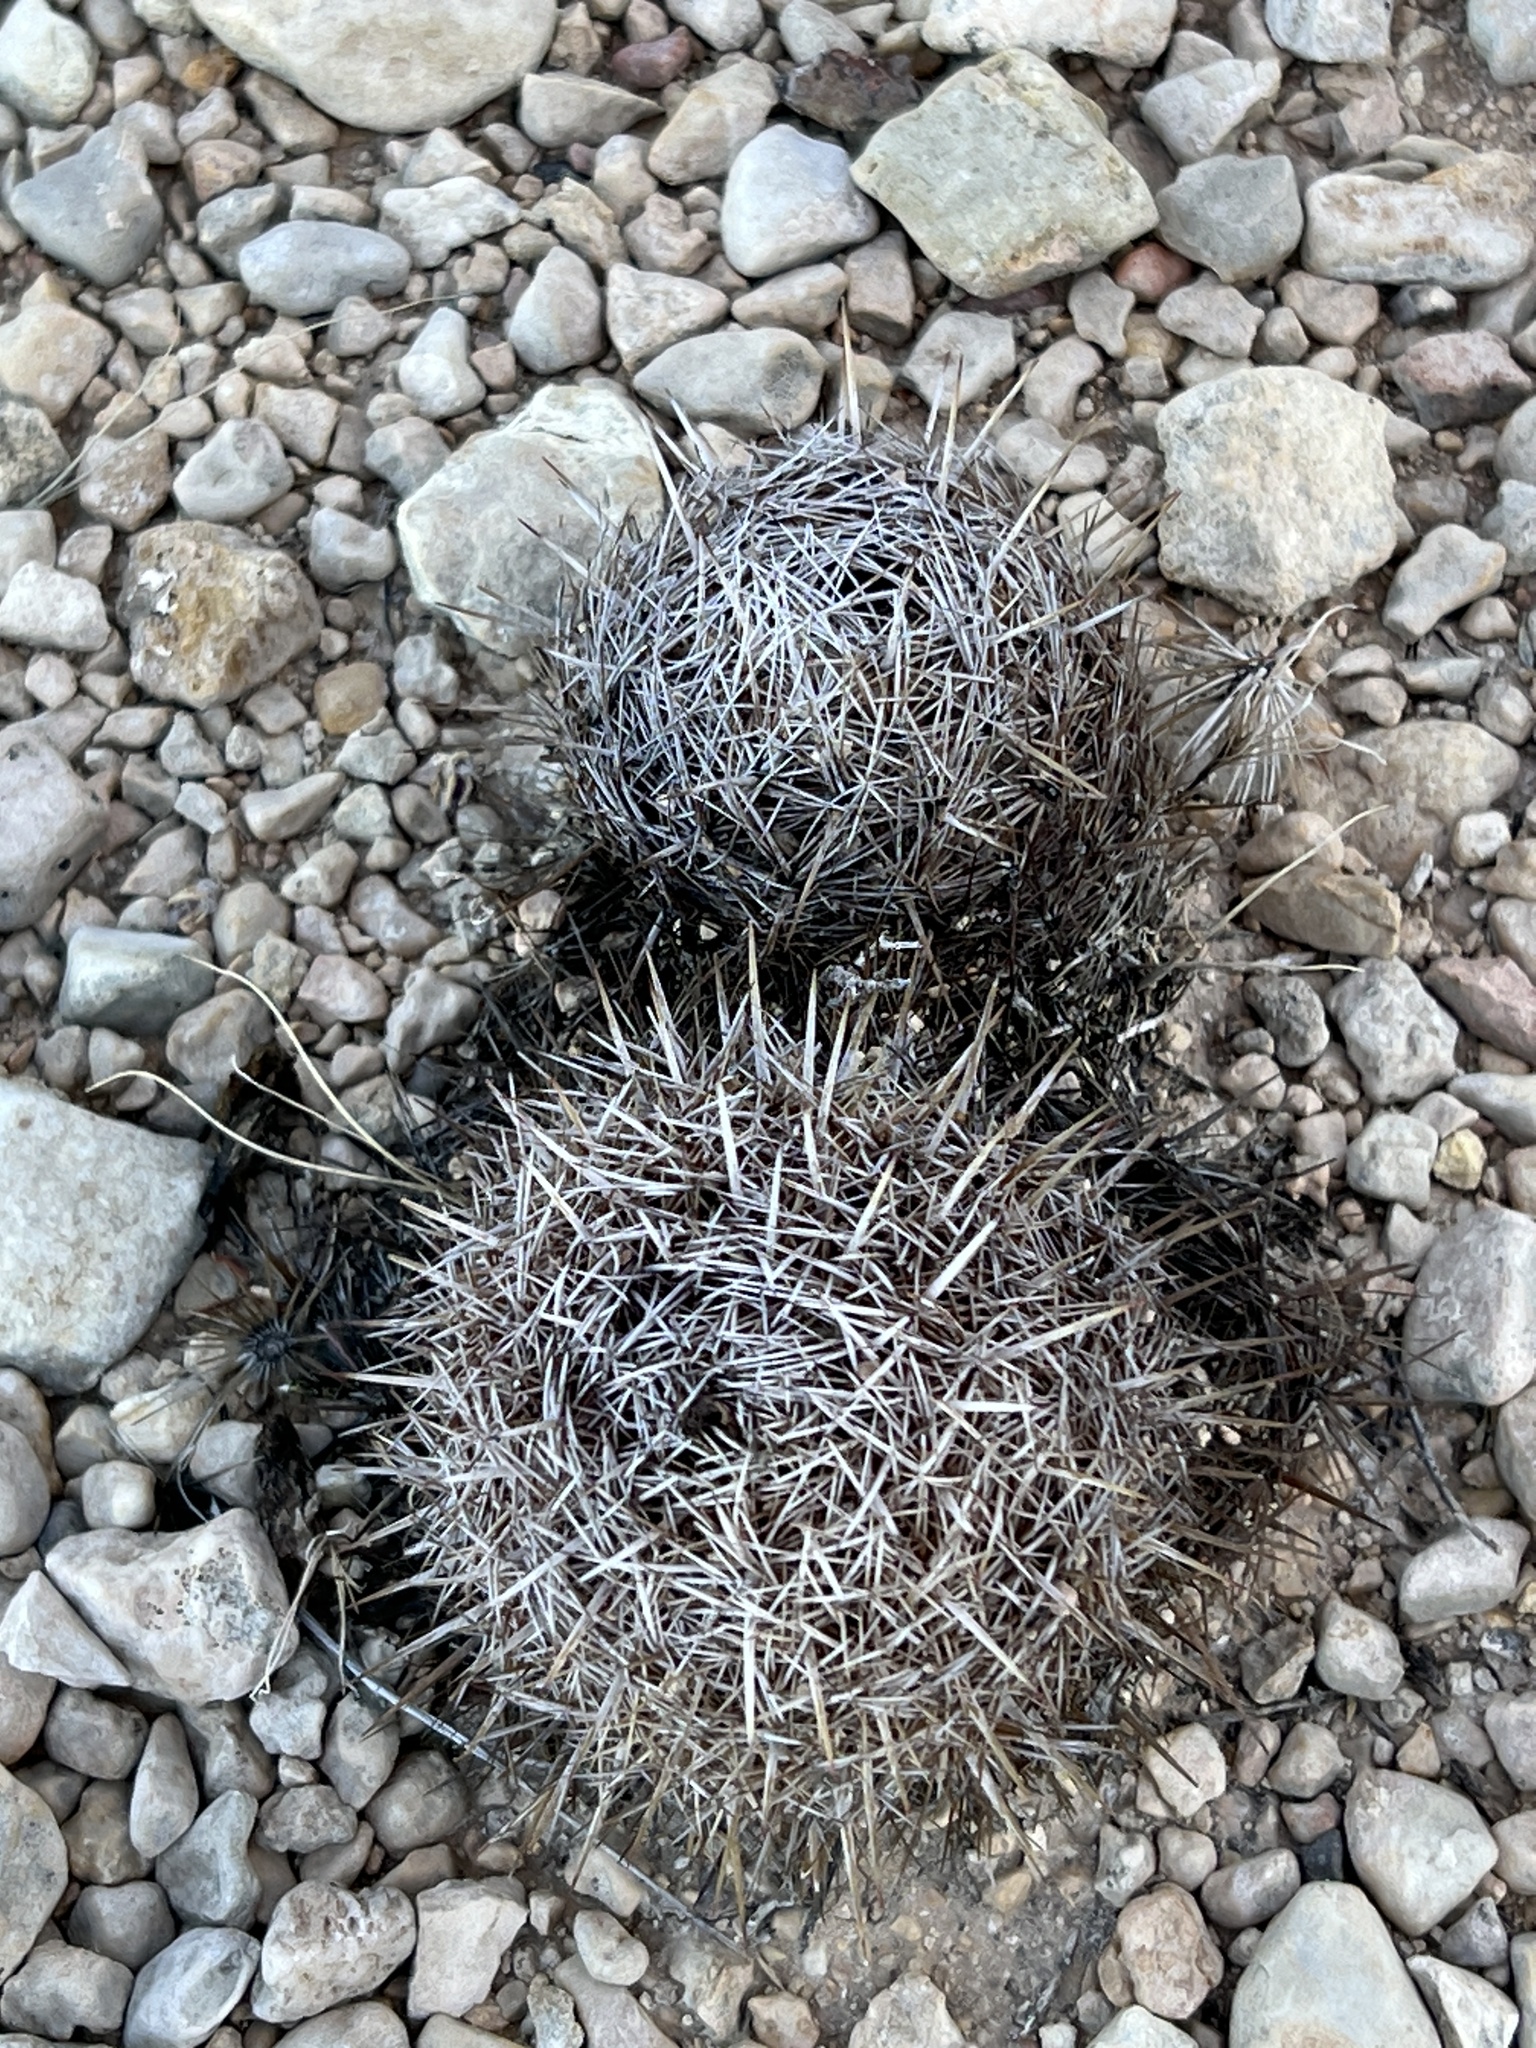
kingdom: Plantae
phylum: Tracheophyta
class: Magnoliopsida
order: Caryophyllales
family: Cactaceae
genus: Coryphantha
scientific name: Coryphantha echinus
